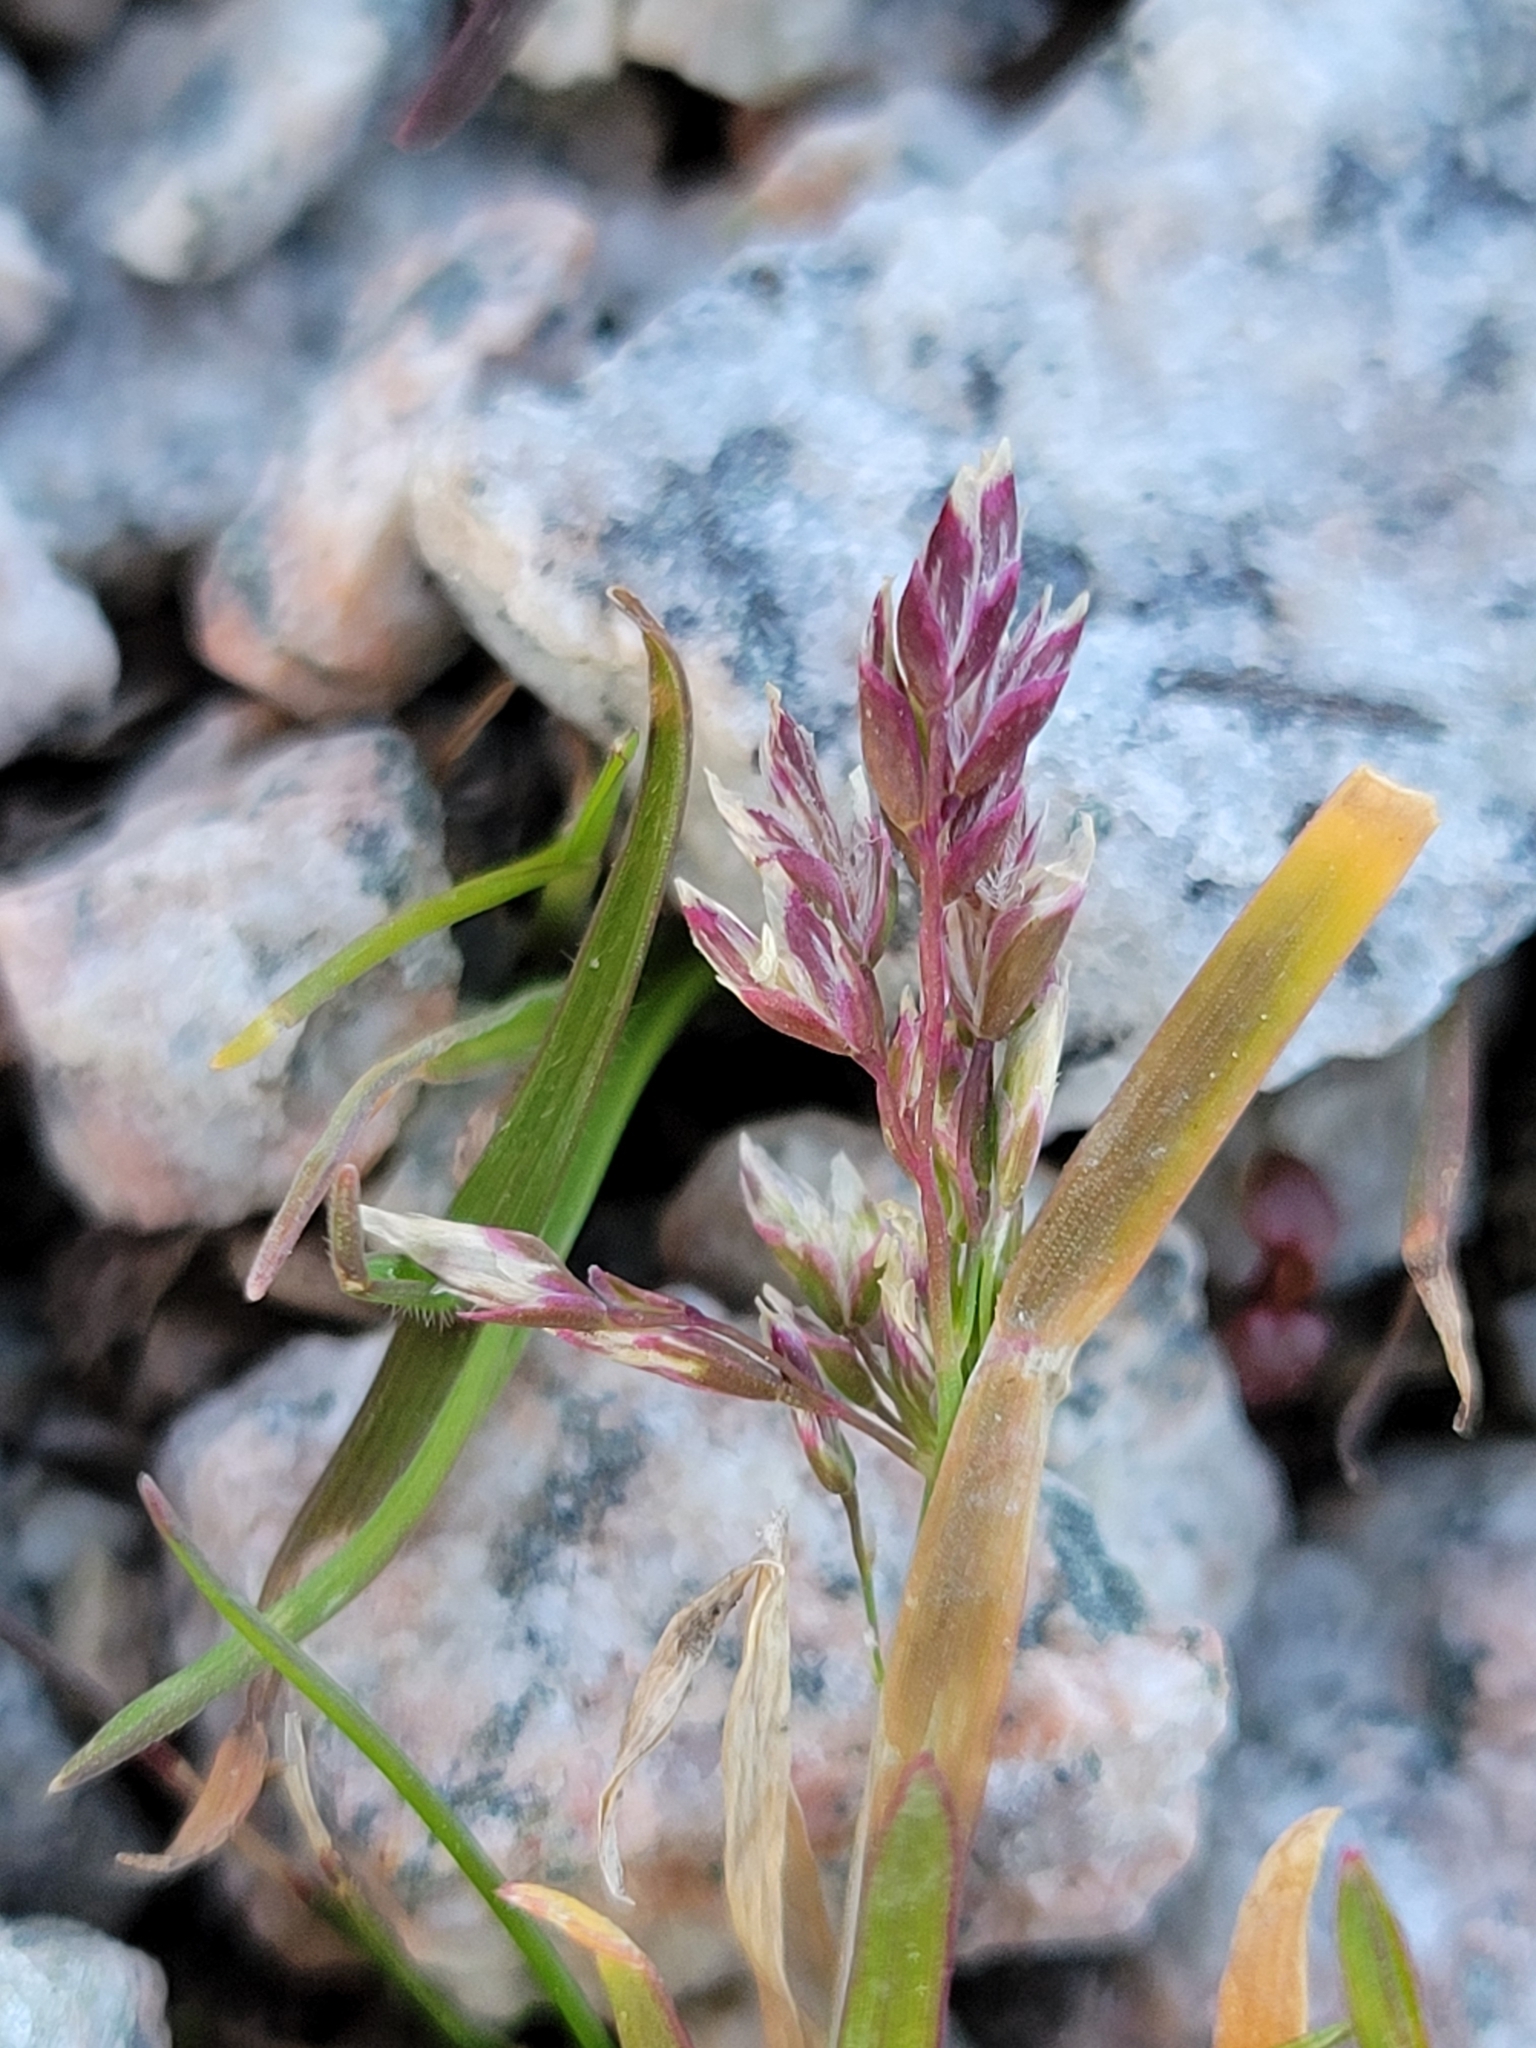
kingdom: Plantae
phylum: Tracheophyta
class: Liliopsida
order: Poales
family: Poaceae
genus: Poa
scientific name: Poa annua
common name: Annual bluegrass
